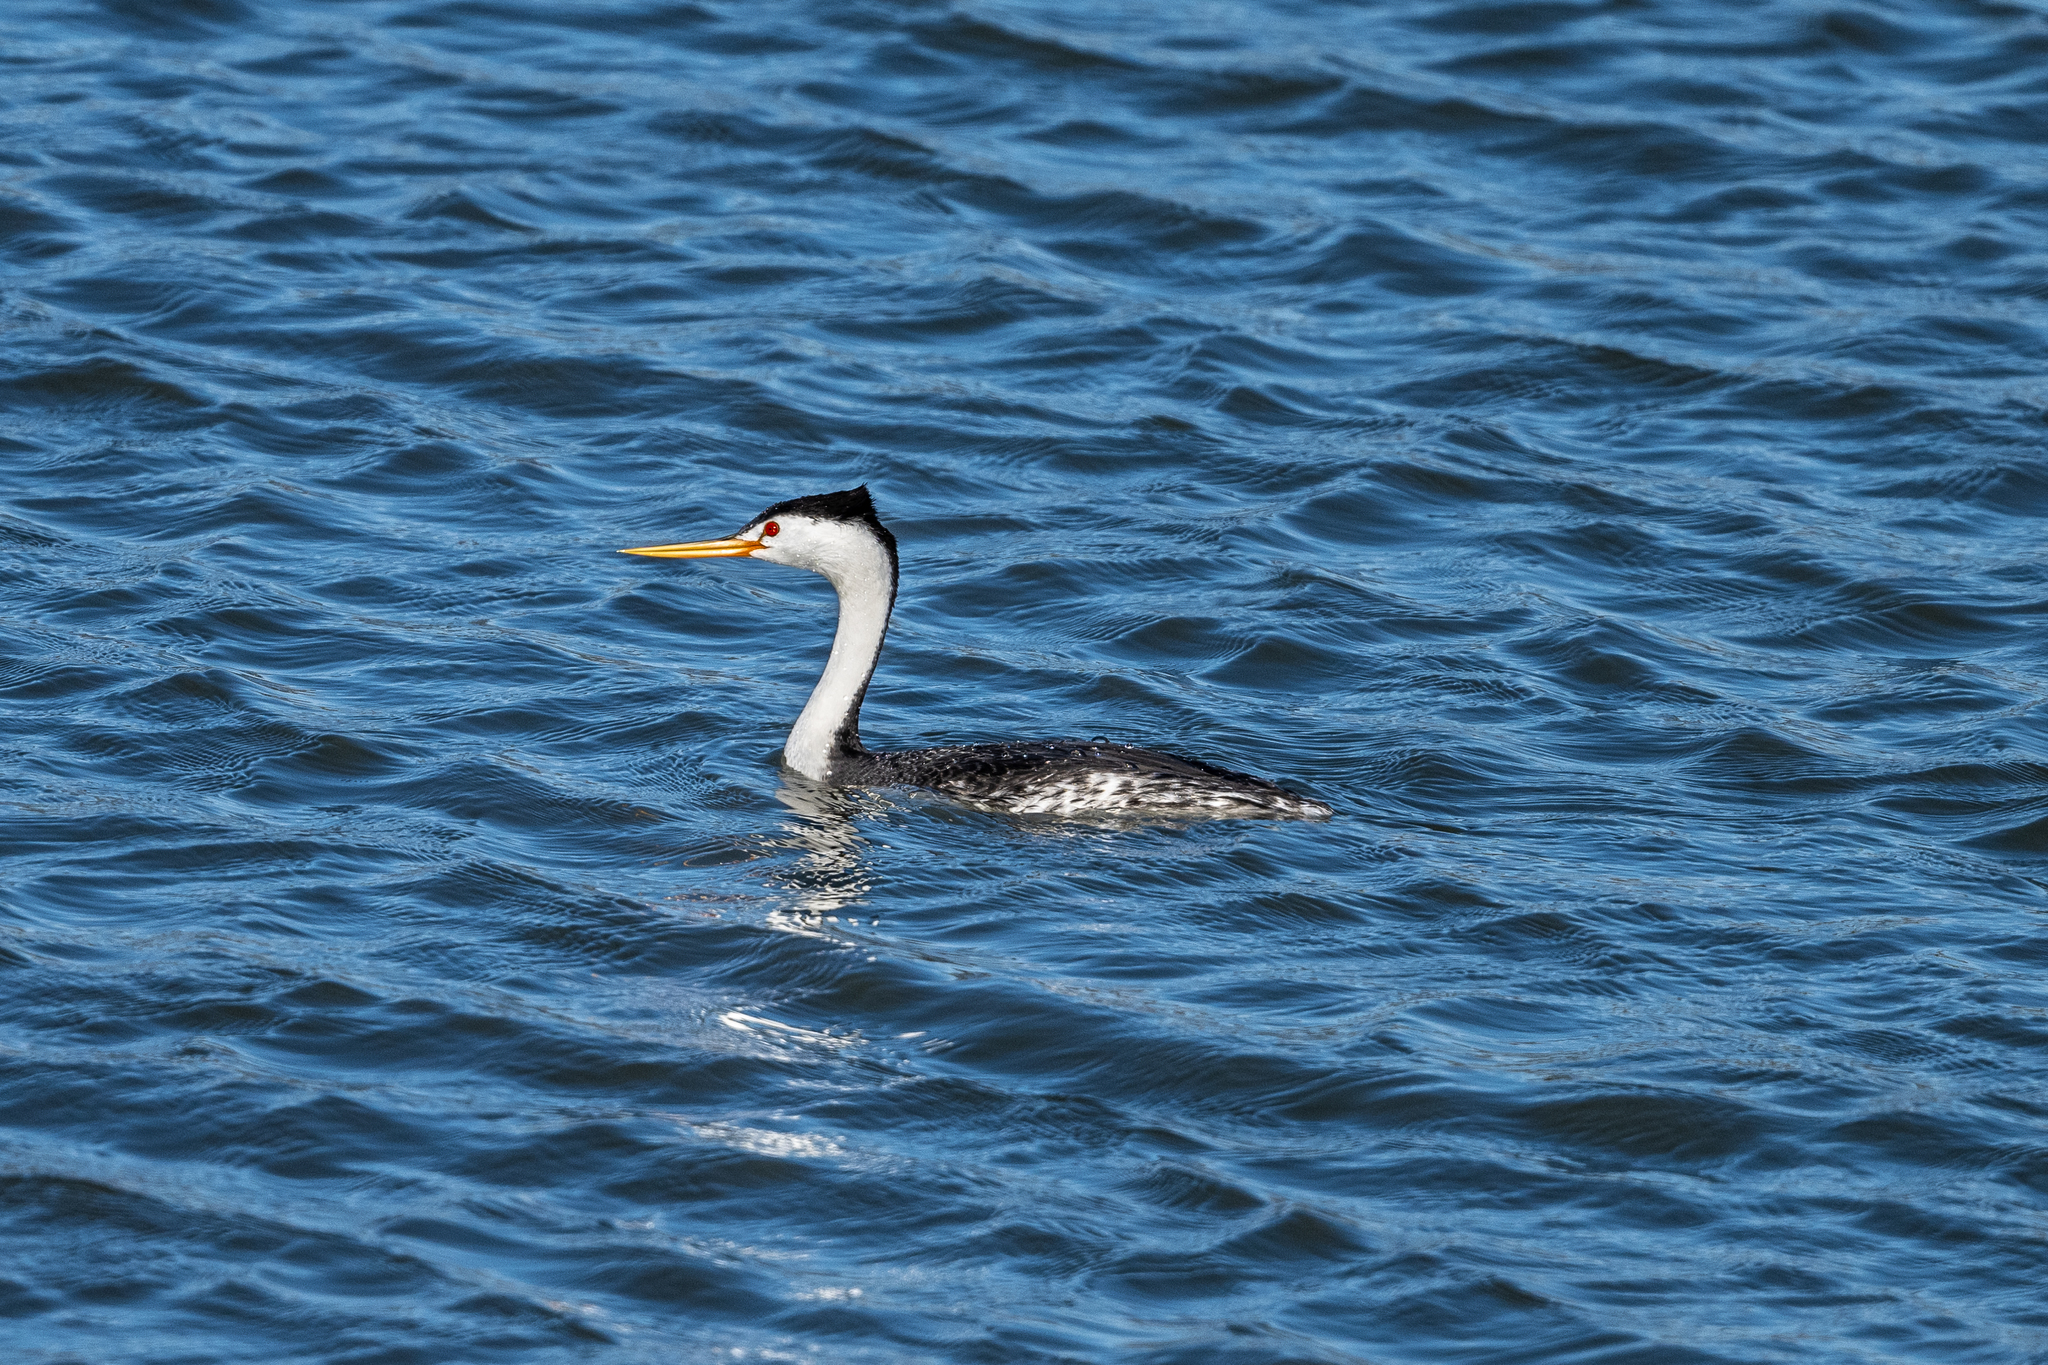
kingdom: Animalia
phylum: Chordata
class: Aves
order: Podicipediformes
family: Podicipedidae
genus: Aechmophorus
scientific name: Aechmophorus clarkii
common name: Clark's grebe
